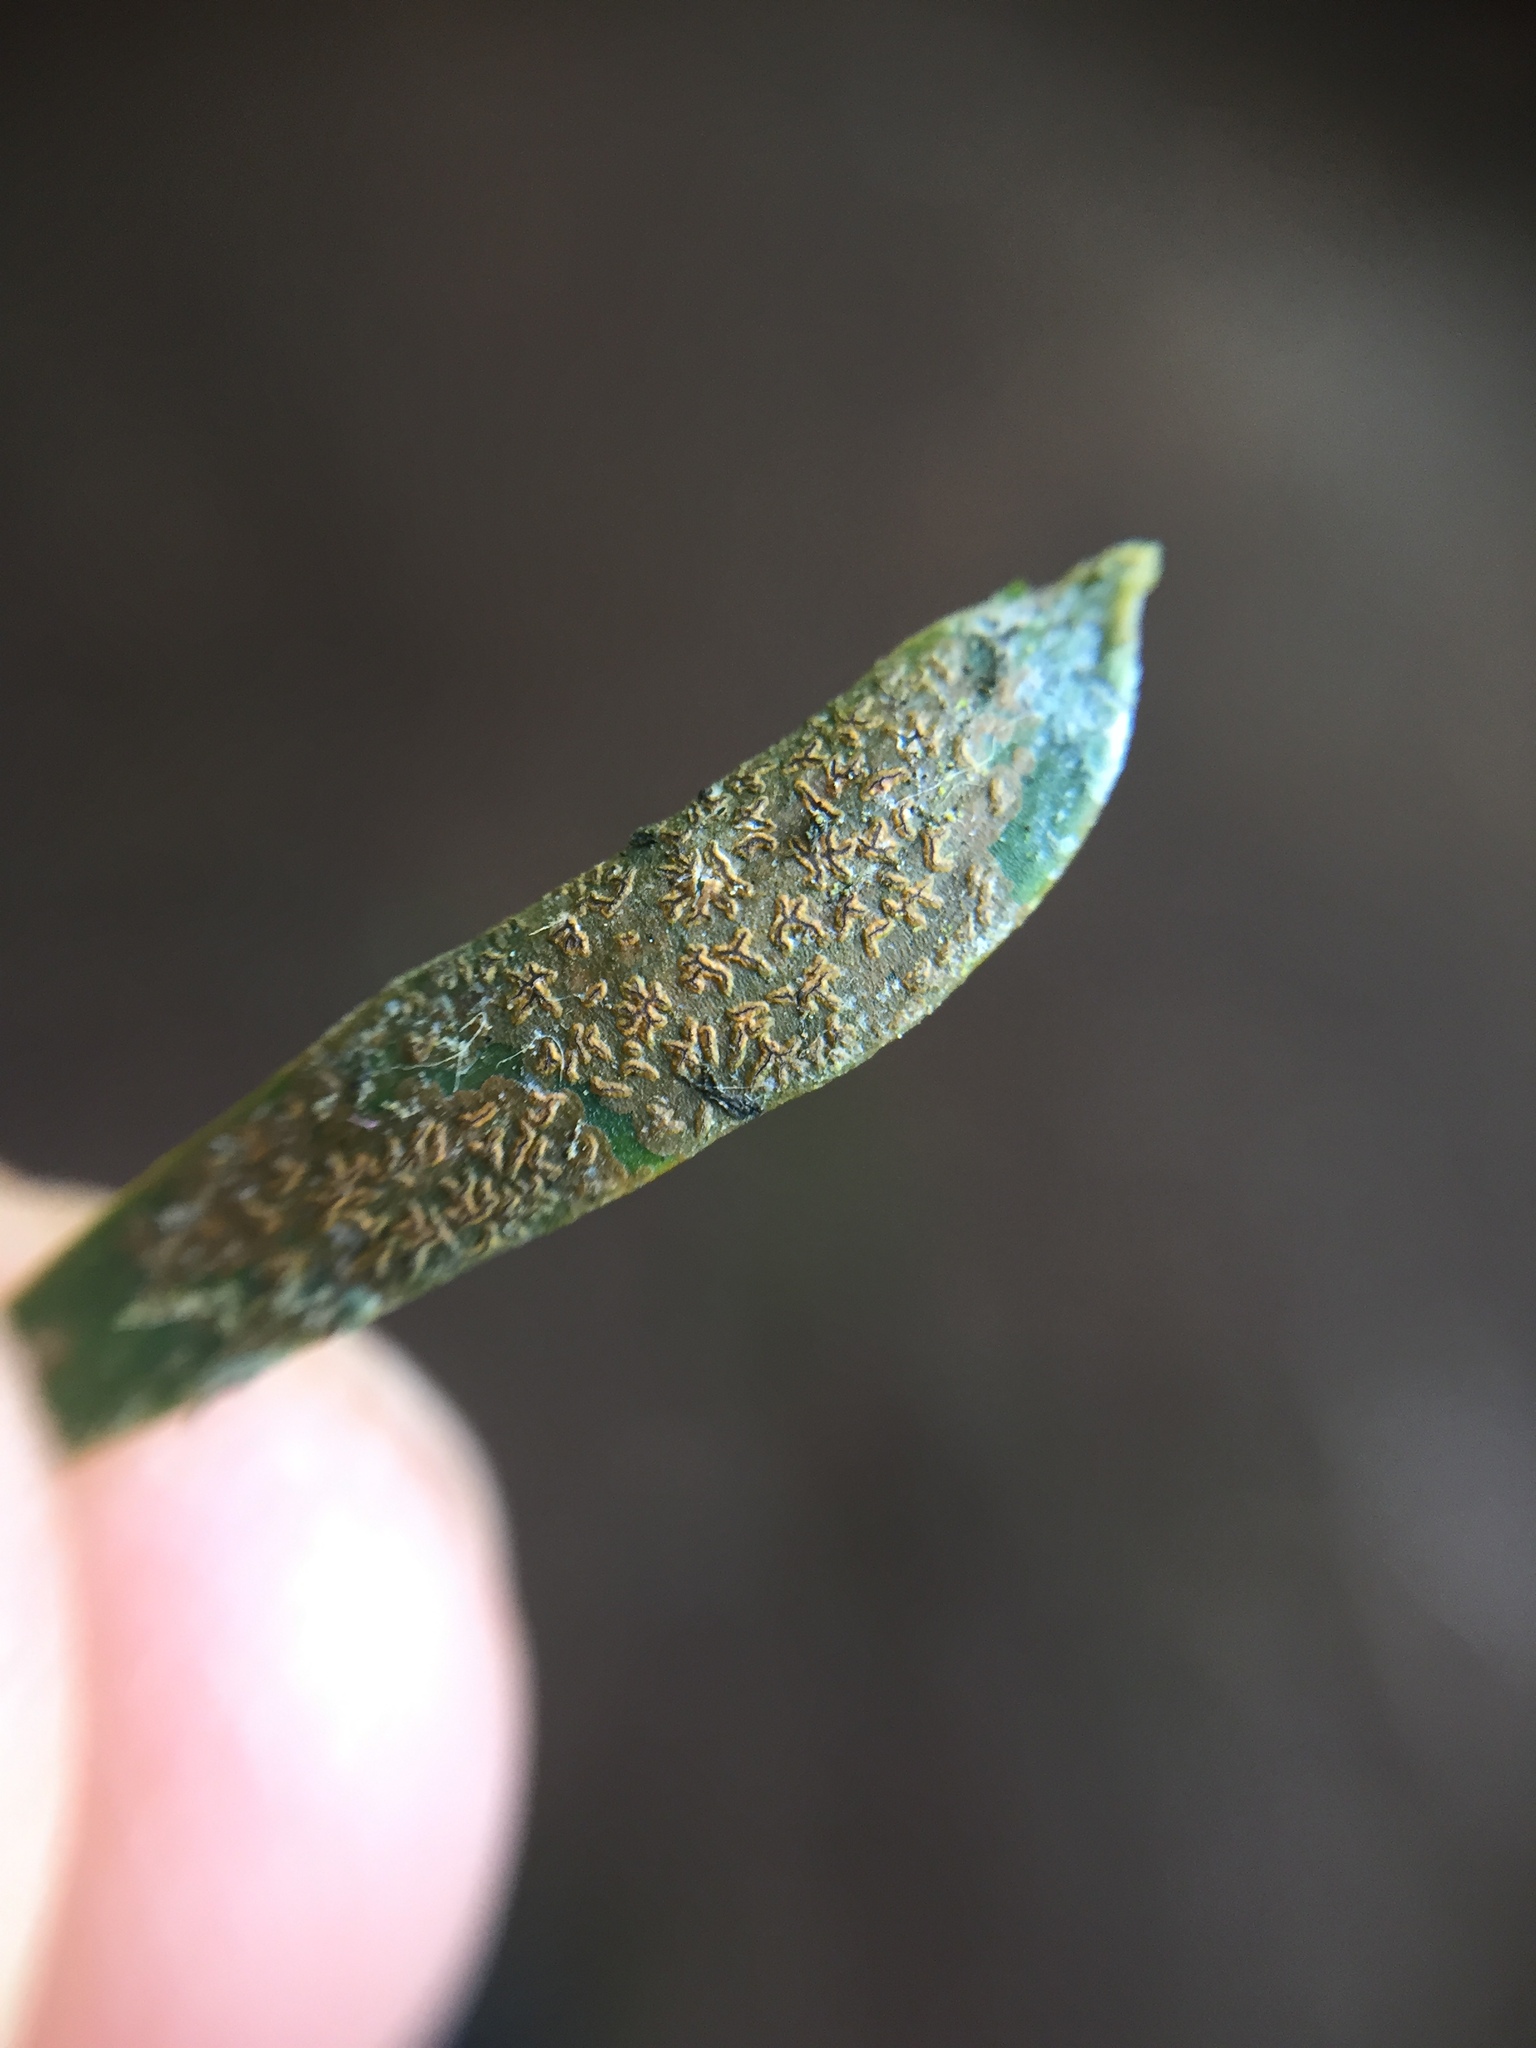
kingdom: Fungi
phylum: Ascomycota
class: Arthoniomycetes
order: Arthoniales
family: Roccellaceae
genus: Enterographa
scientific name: Enterographa bella
